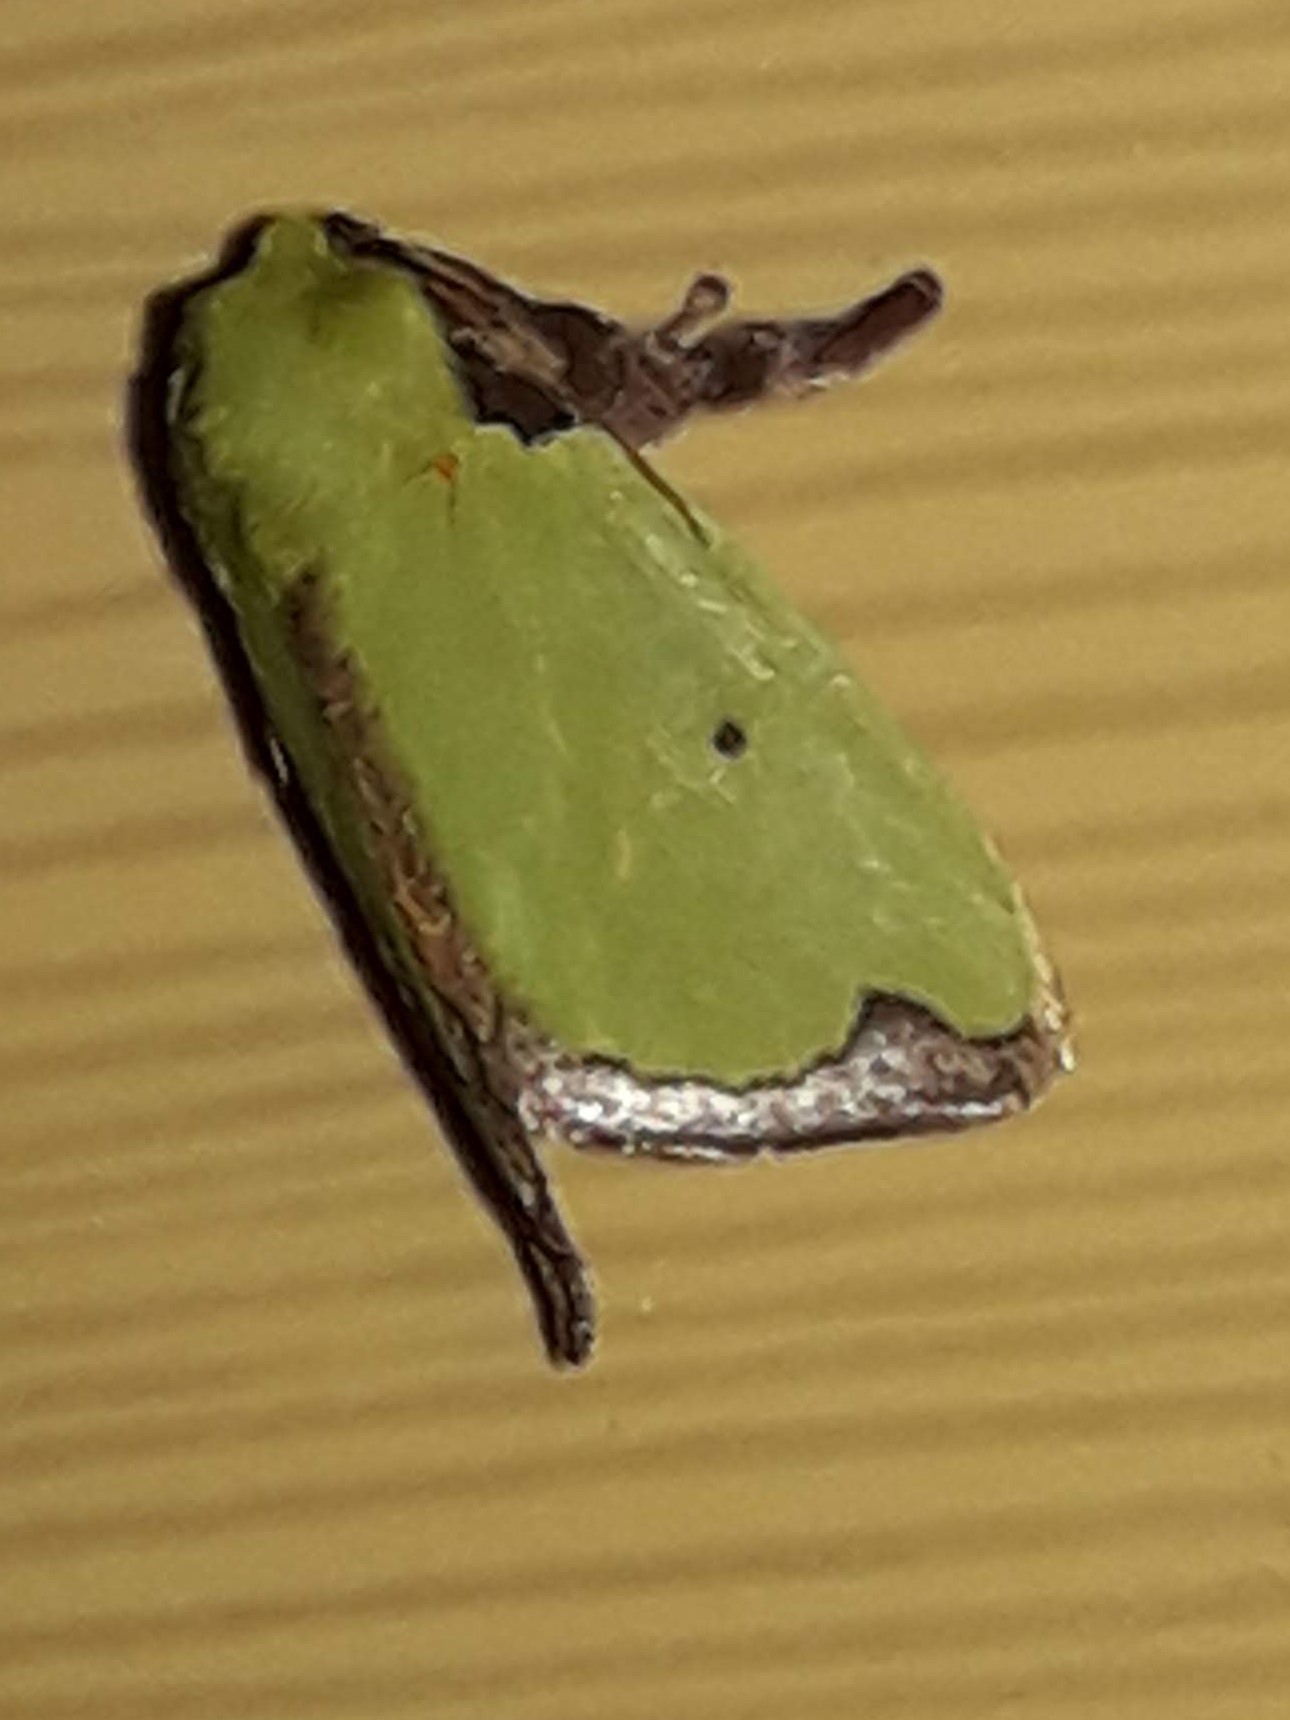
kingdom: Animalia
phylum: Arthropoda
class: Insecta
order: Lepidoptera
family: Limacodidae
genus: Parasa
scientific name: Parasa wellesca
